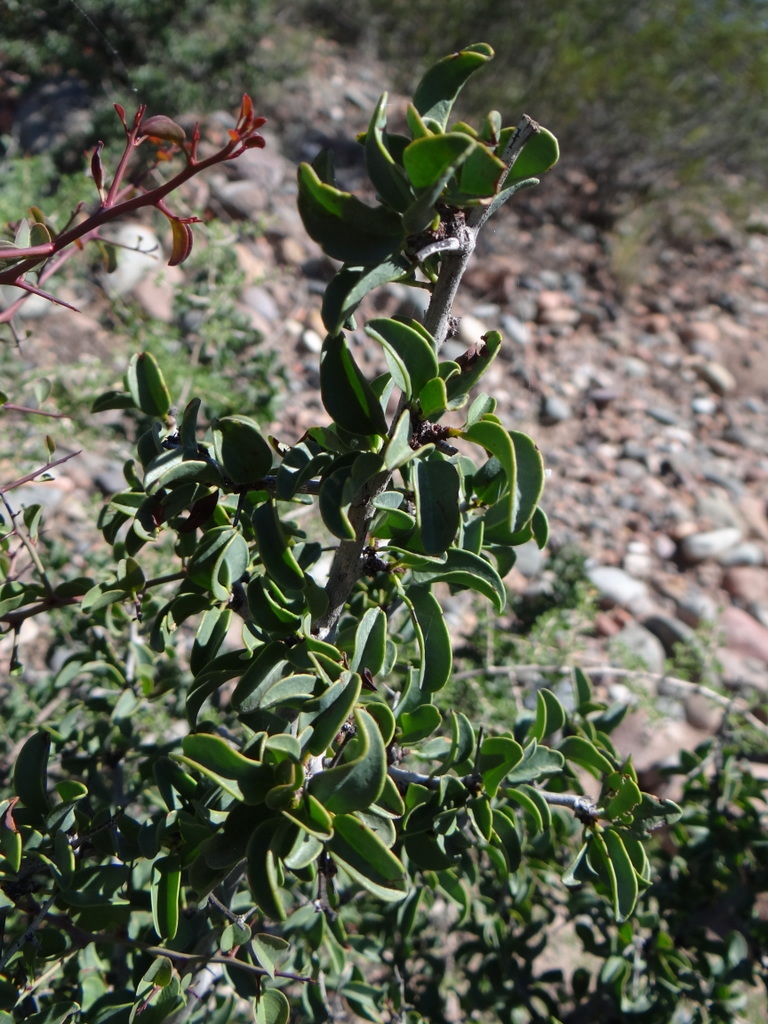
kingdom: Plantae
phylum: Tracheophyta
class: Magnoliopsida
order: Santalales
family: Ximeniaceae
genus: Ximenia
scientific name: Ximenia americana
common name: Tallowwood
